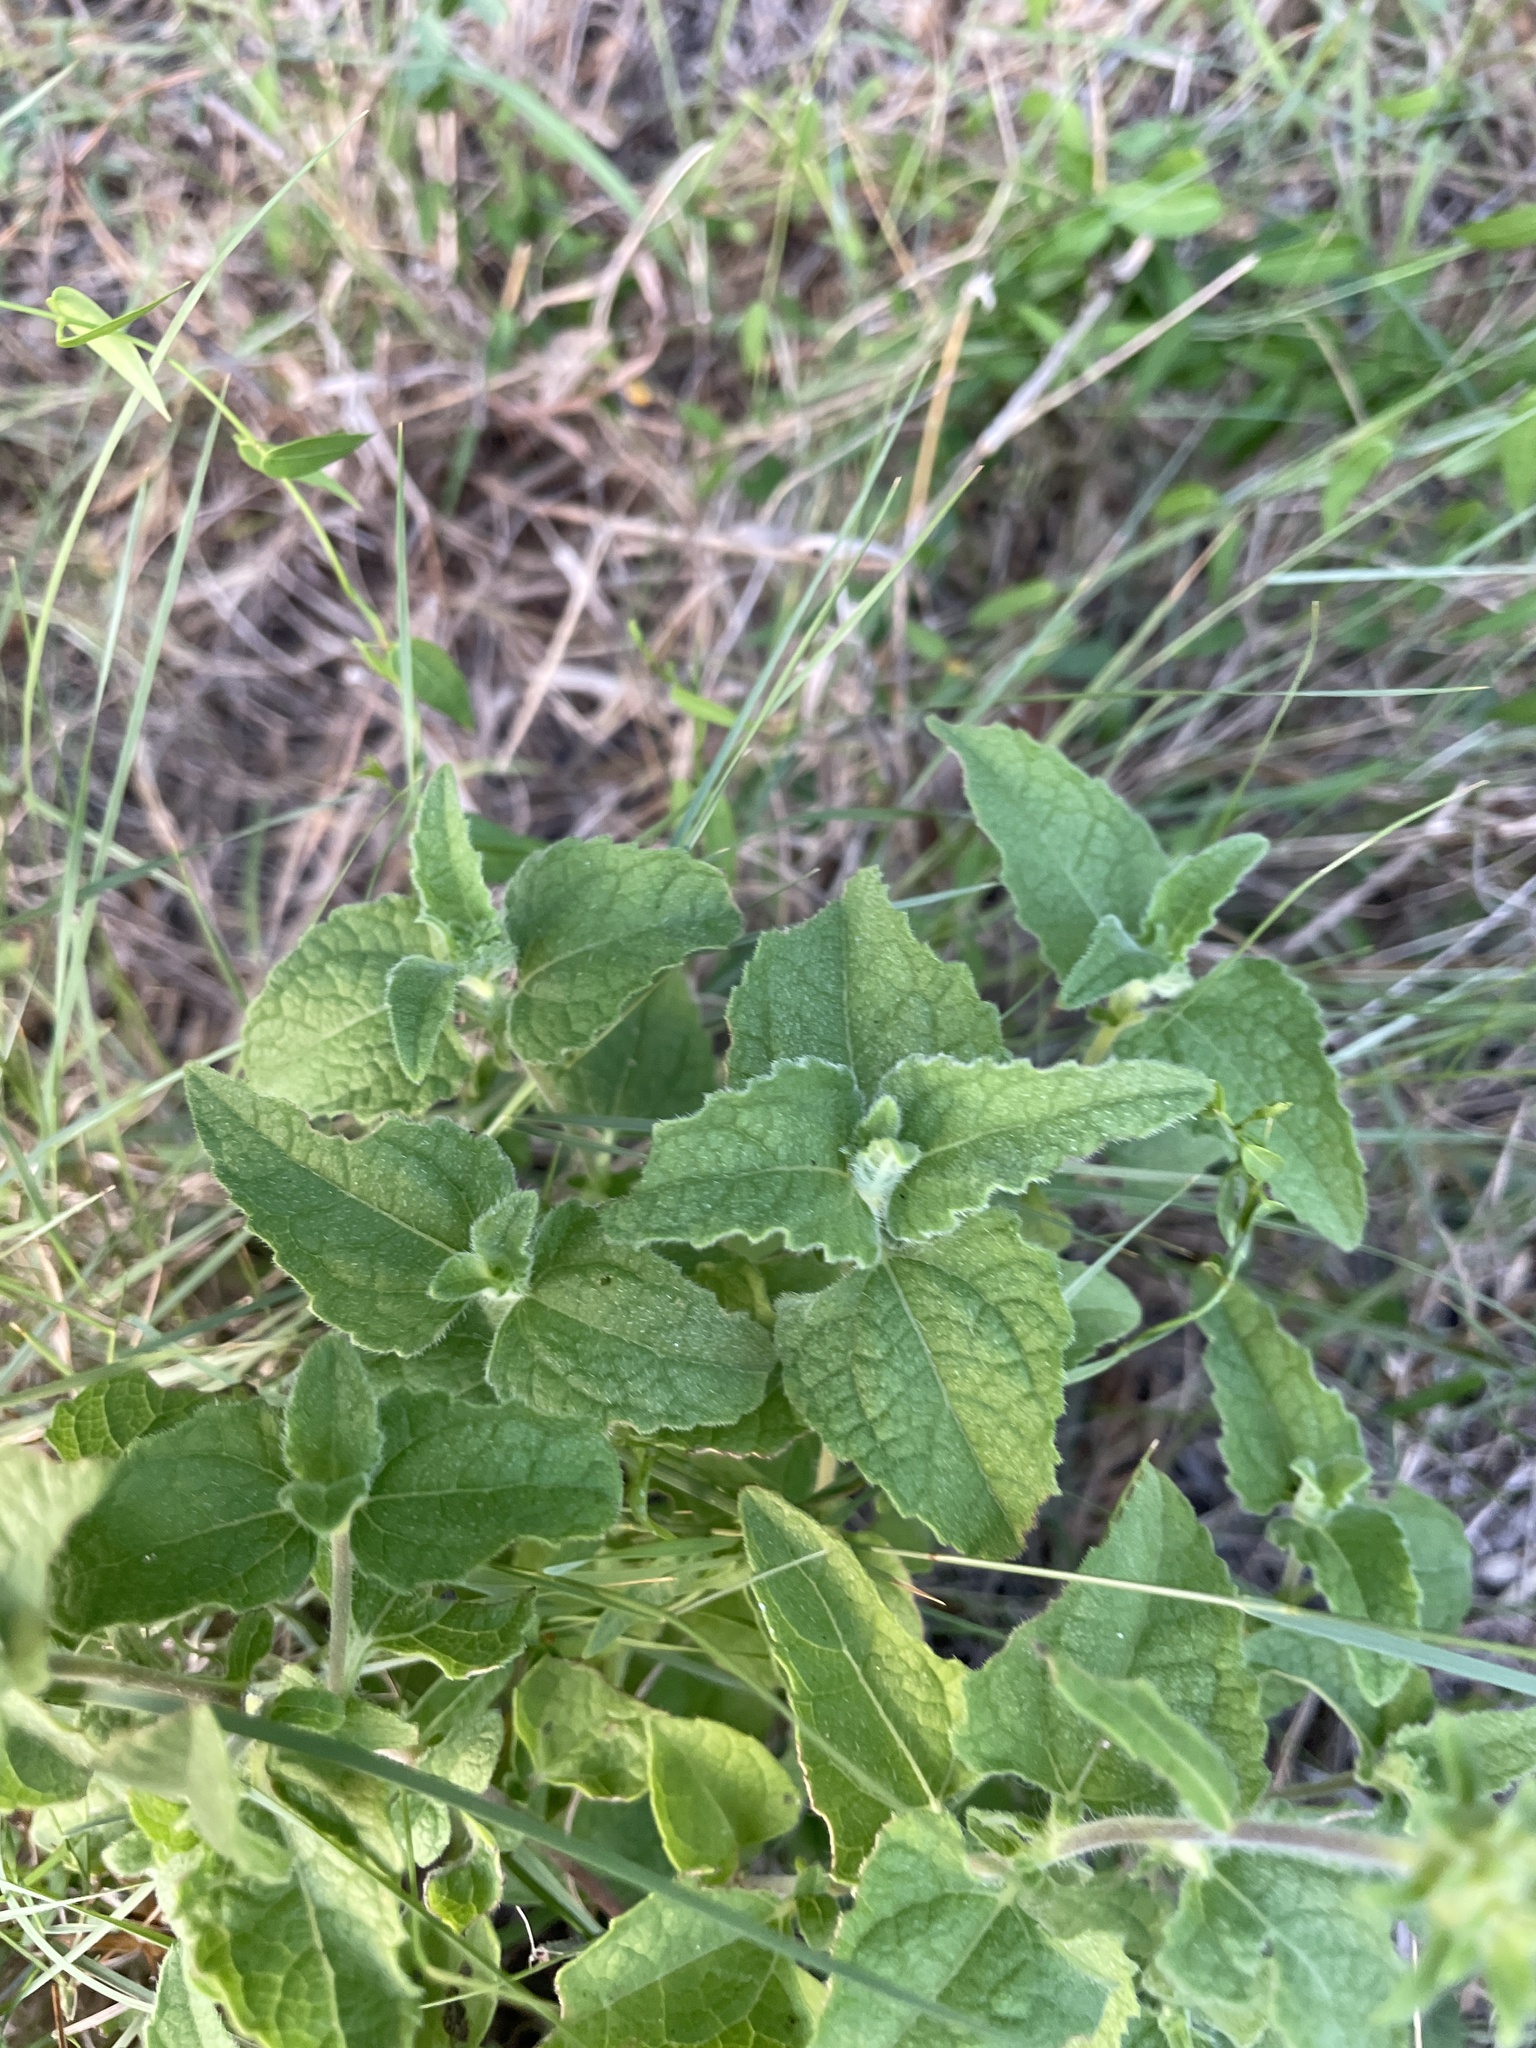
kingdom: Plantae
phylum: Tracheophyta
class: Magnoliopsida
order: Asterales
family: Asteraceae
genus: Simsia
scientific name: Simsia calva
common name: Awnless bush-sunflower
